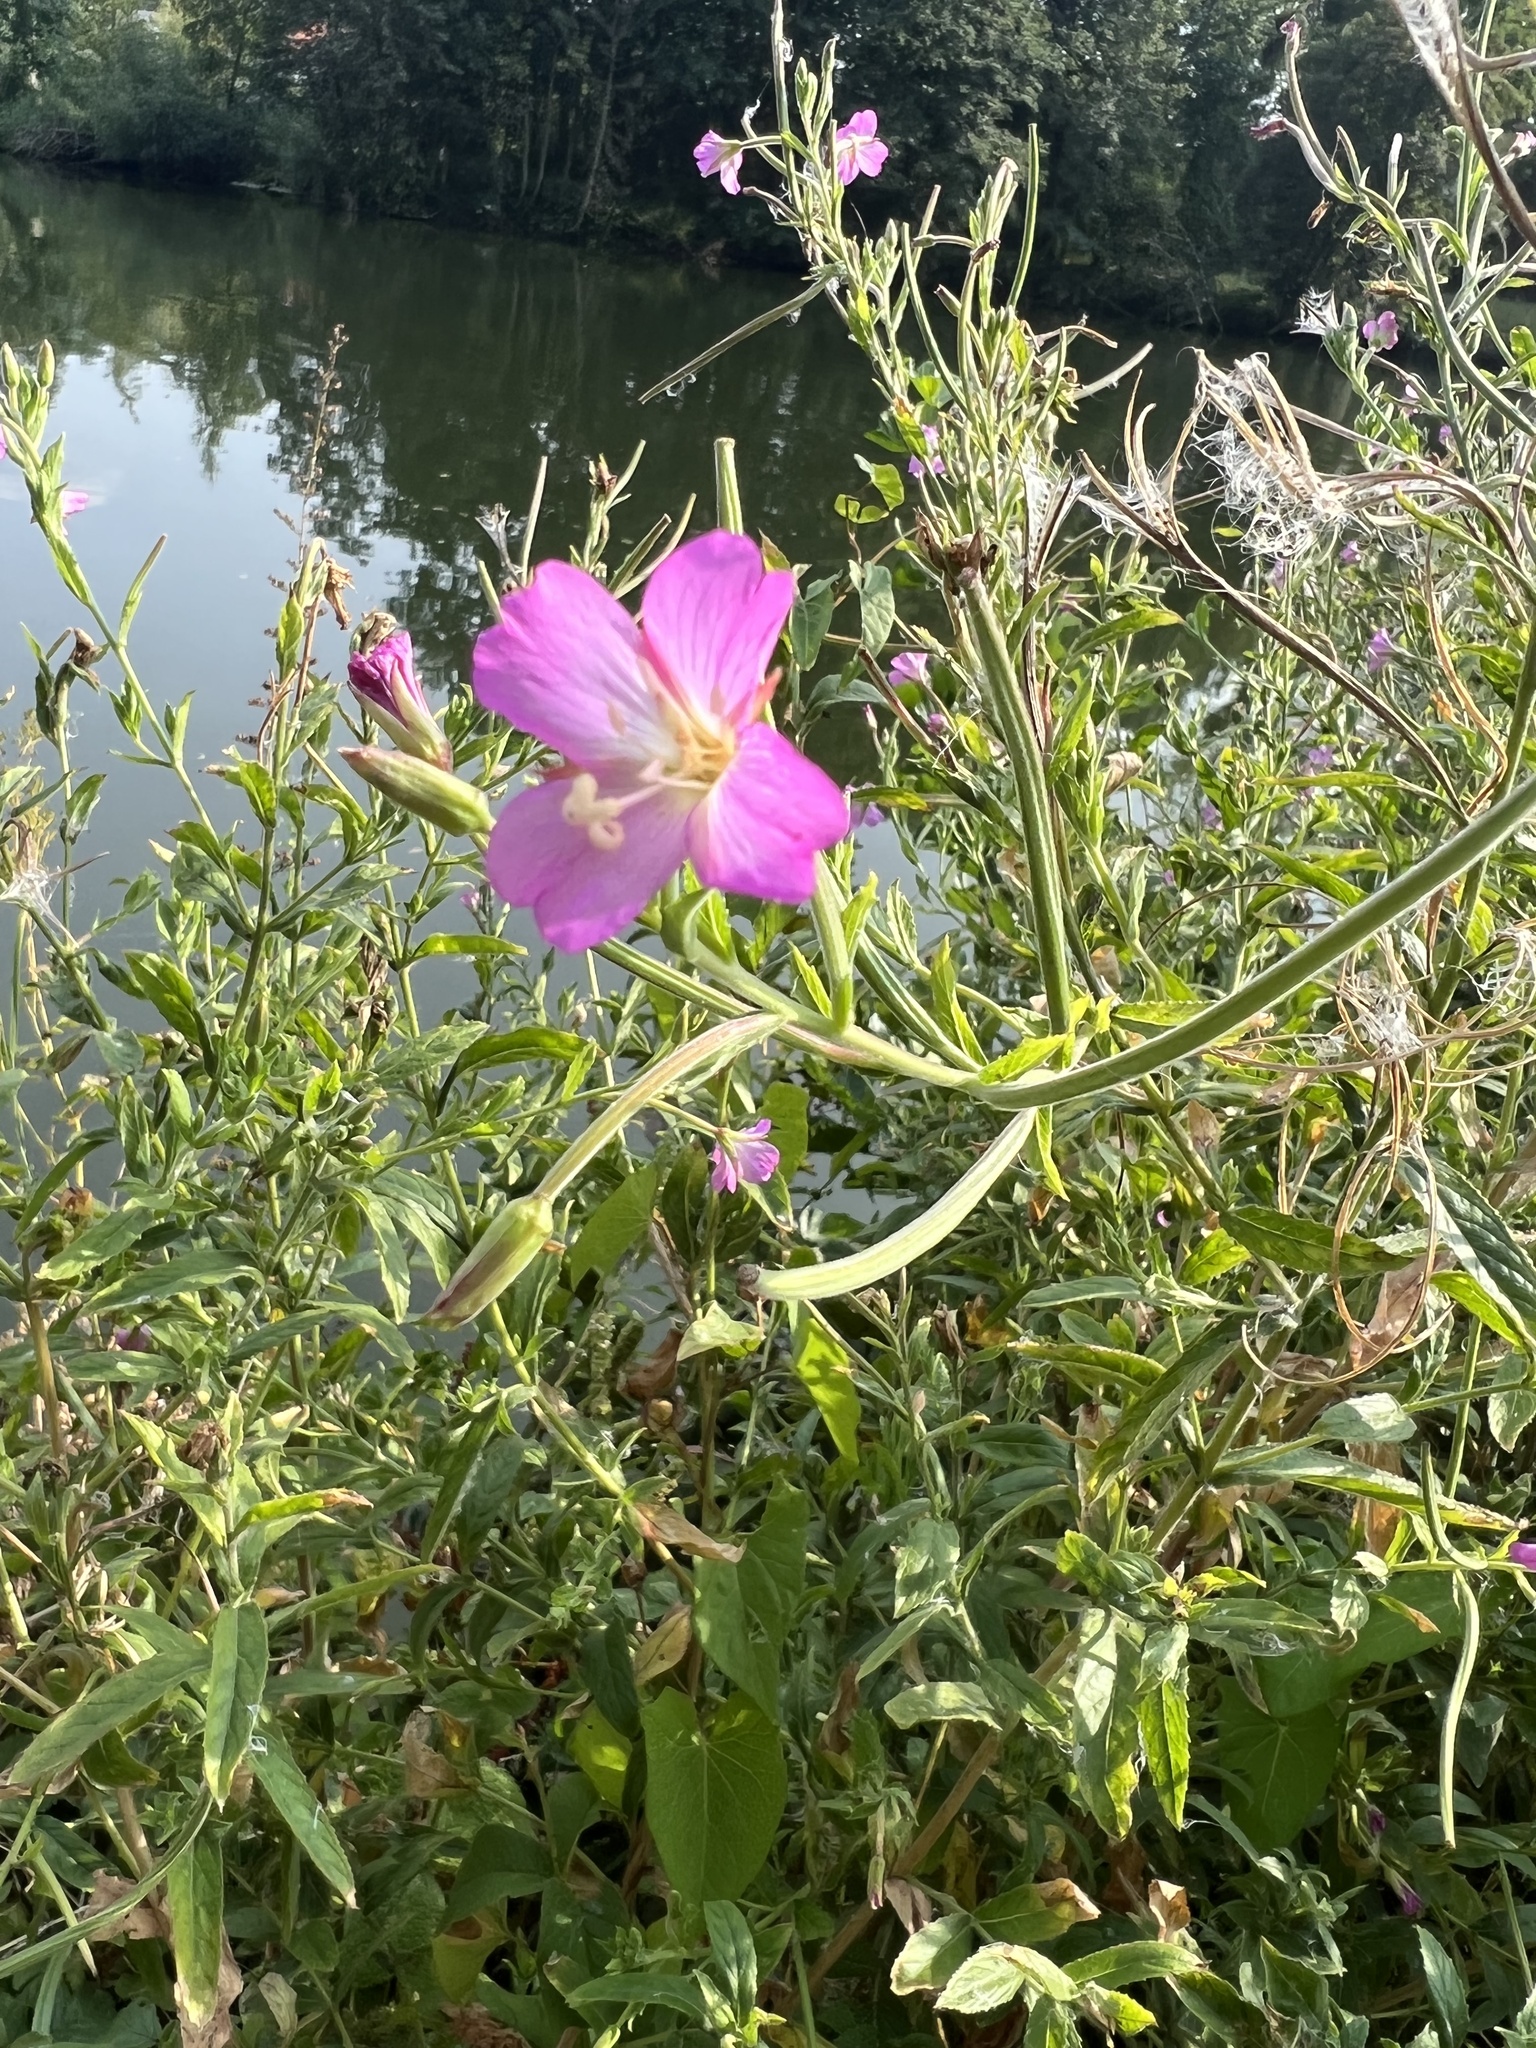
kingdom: Plantae
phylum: Tracheophyta
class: Magnoliopsida
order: Myrtales
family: Onagraceae
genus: Epilobium
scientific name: Epilobium hirsutum
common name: Great willowherb
